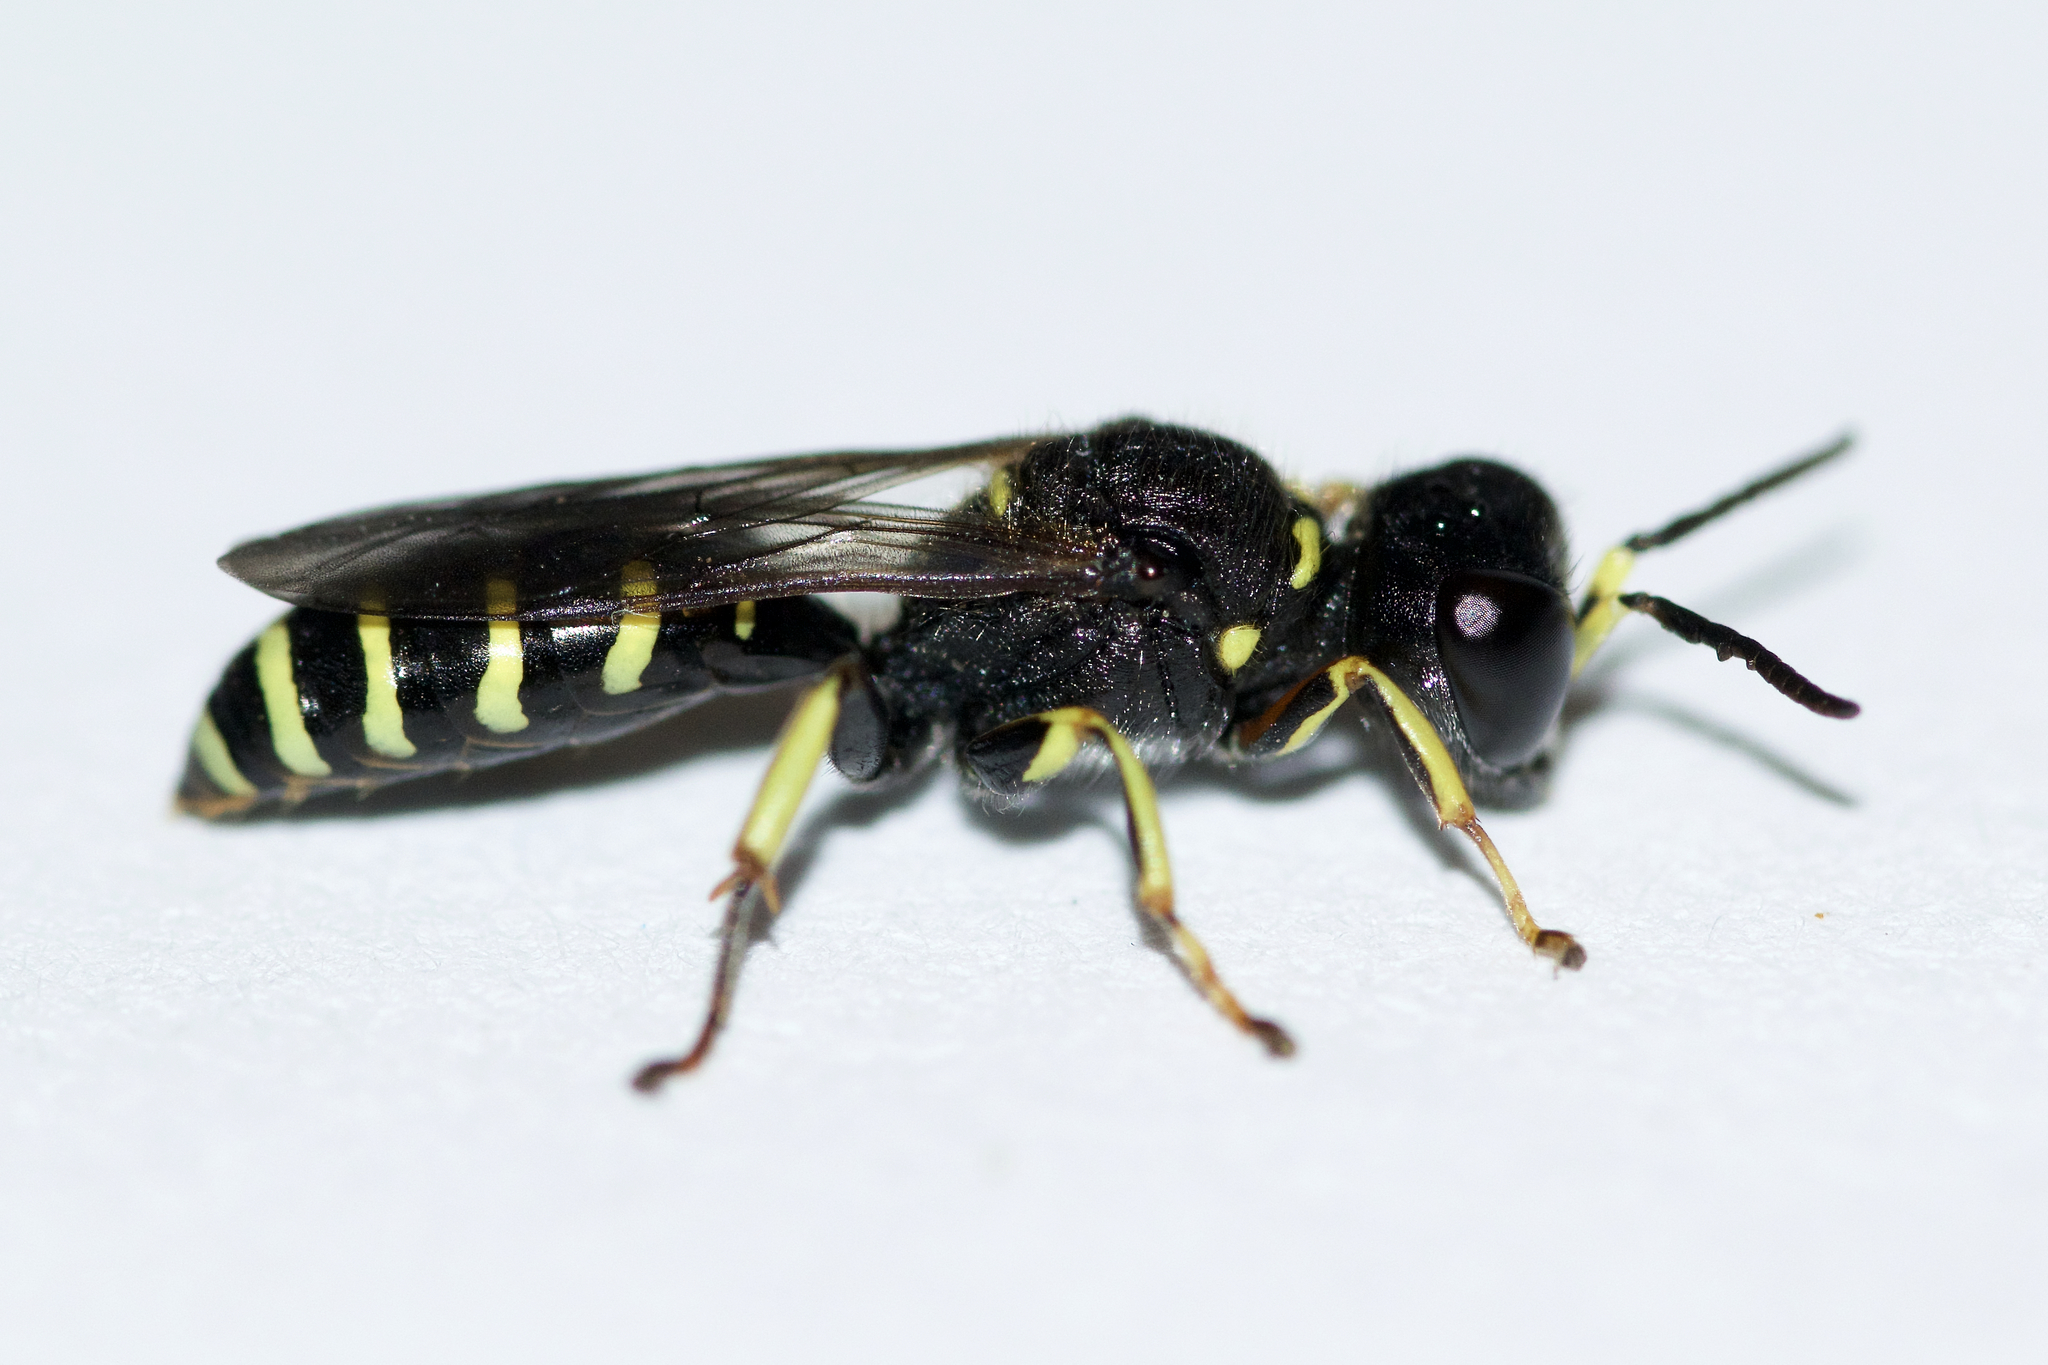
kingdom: Animalia
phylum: Arthropoda
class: Insecta
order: Hymenoptera
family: Crabronidae
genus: Ectemnius
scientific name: Ectemnius ruficornis
